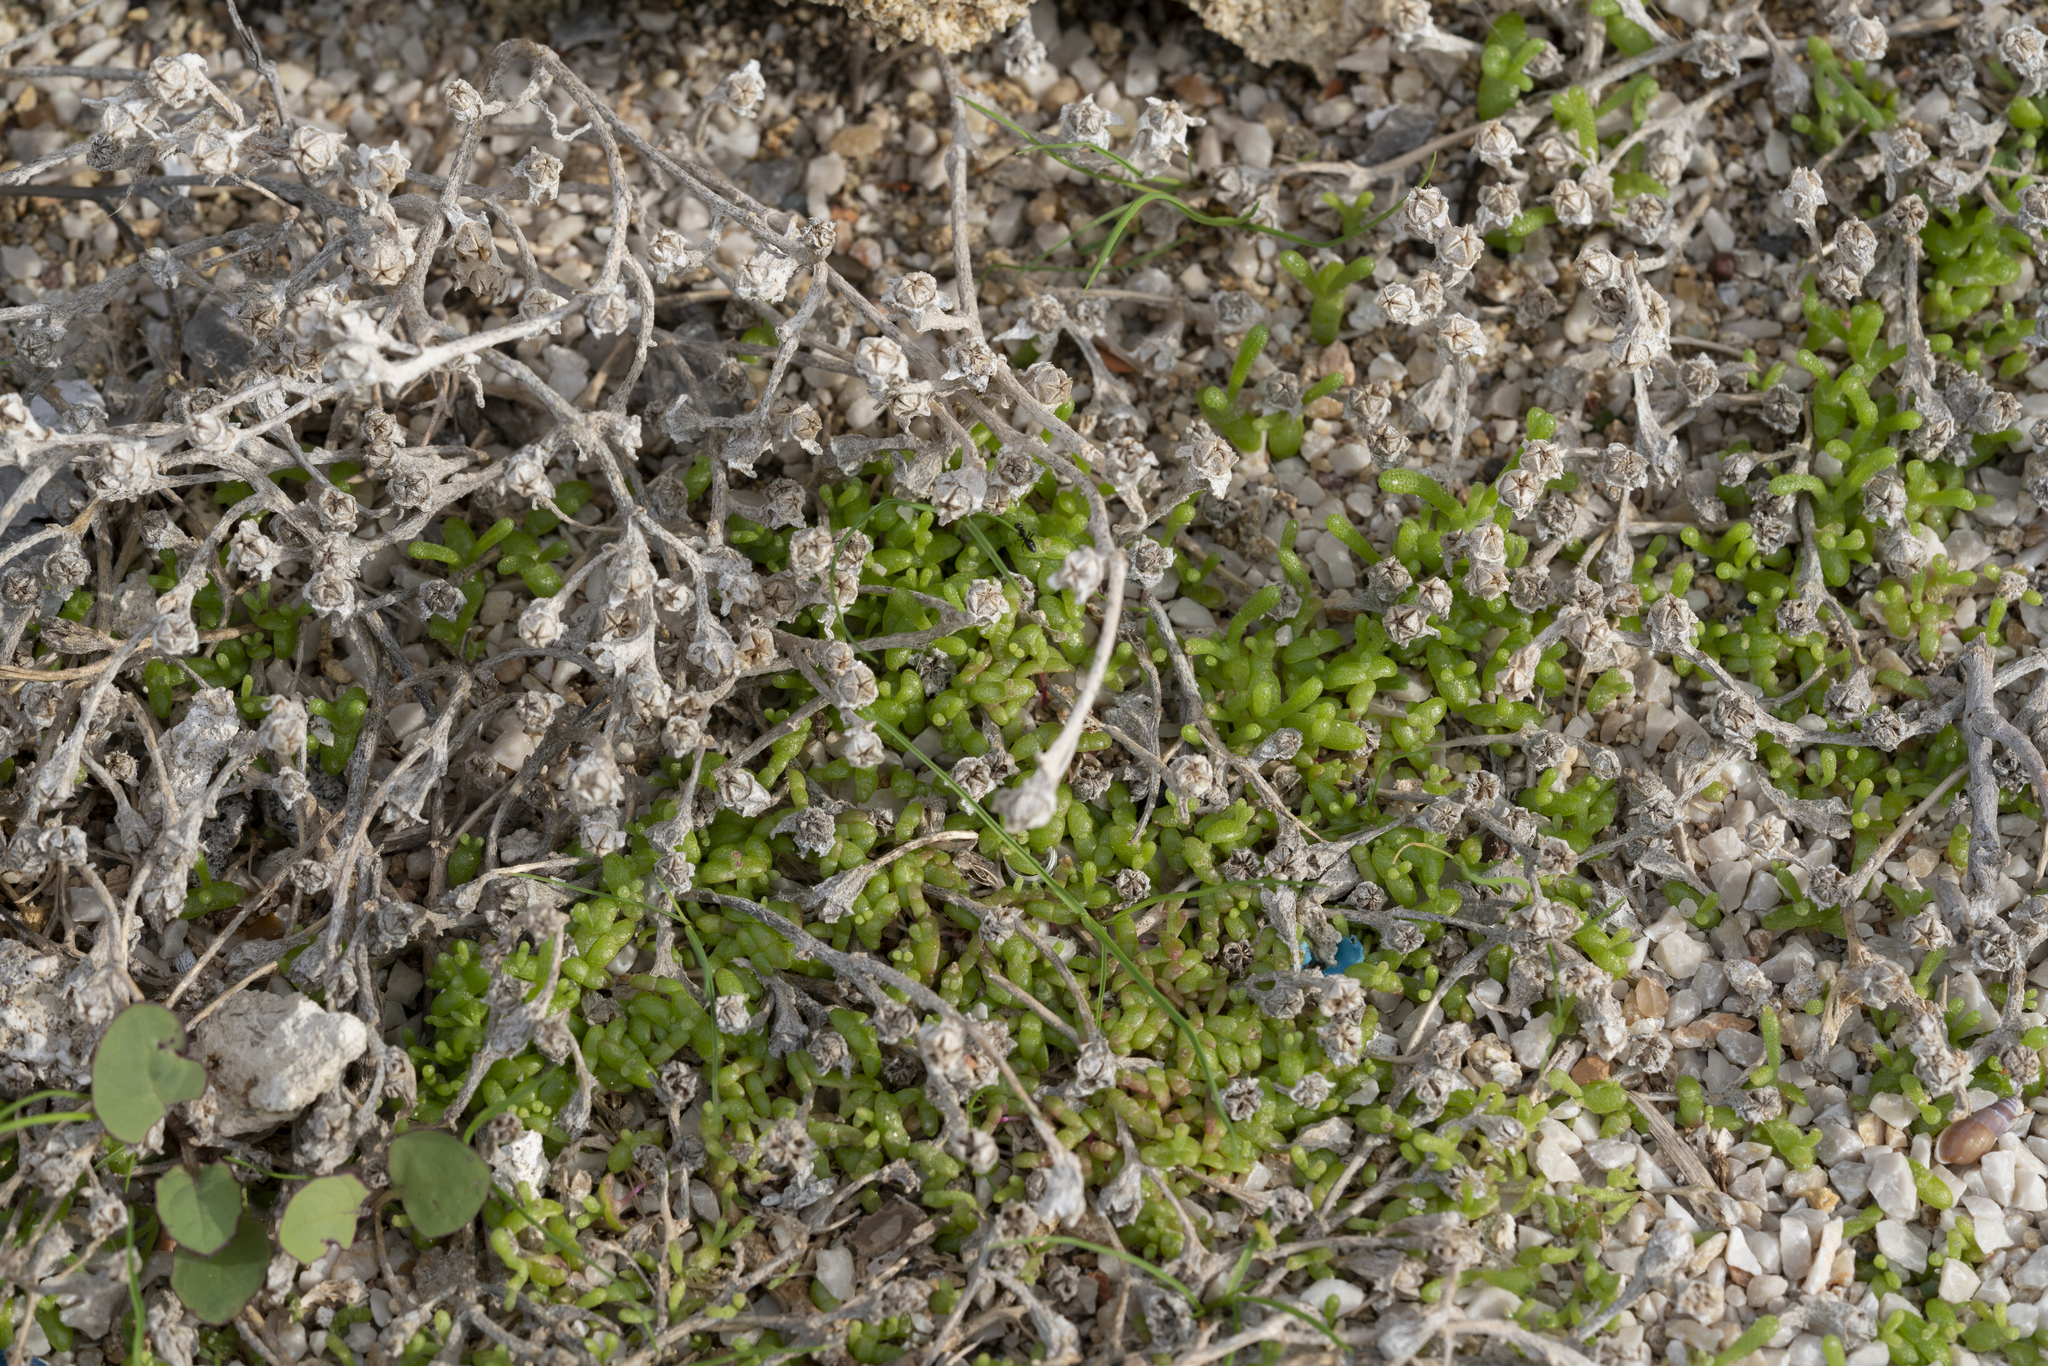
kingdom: Plantae
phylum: Tracheophyta
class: Magnoliopsida
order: Caryophyllales
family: Aizoaceae
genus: Mesembryanthemum
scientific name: Mesembryanthemum nodiflorum
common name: Slenderleaf iceplant
